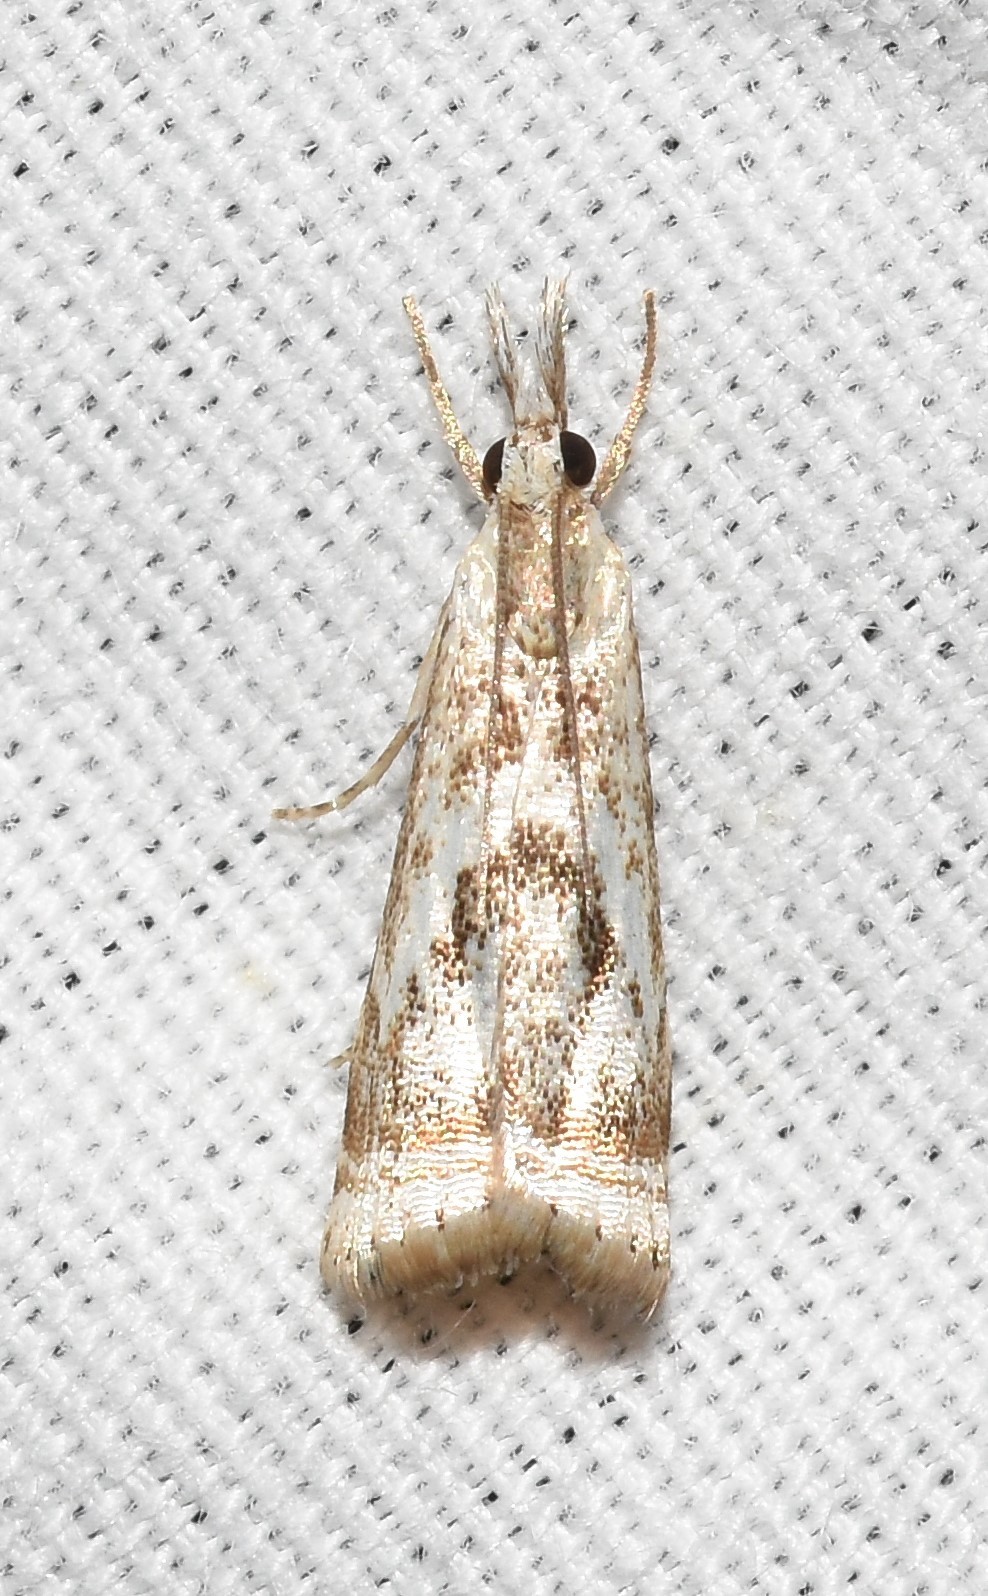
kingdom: Animalia
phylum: Arthropoda
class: Insecta
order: Lepidoptera
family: Crambidae
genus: Microcrambus
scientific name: Microcrambus elegans
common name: Elegant grass-veneer
